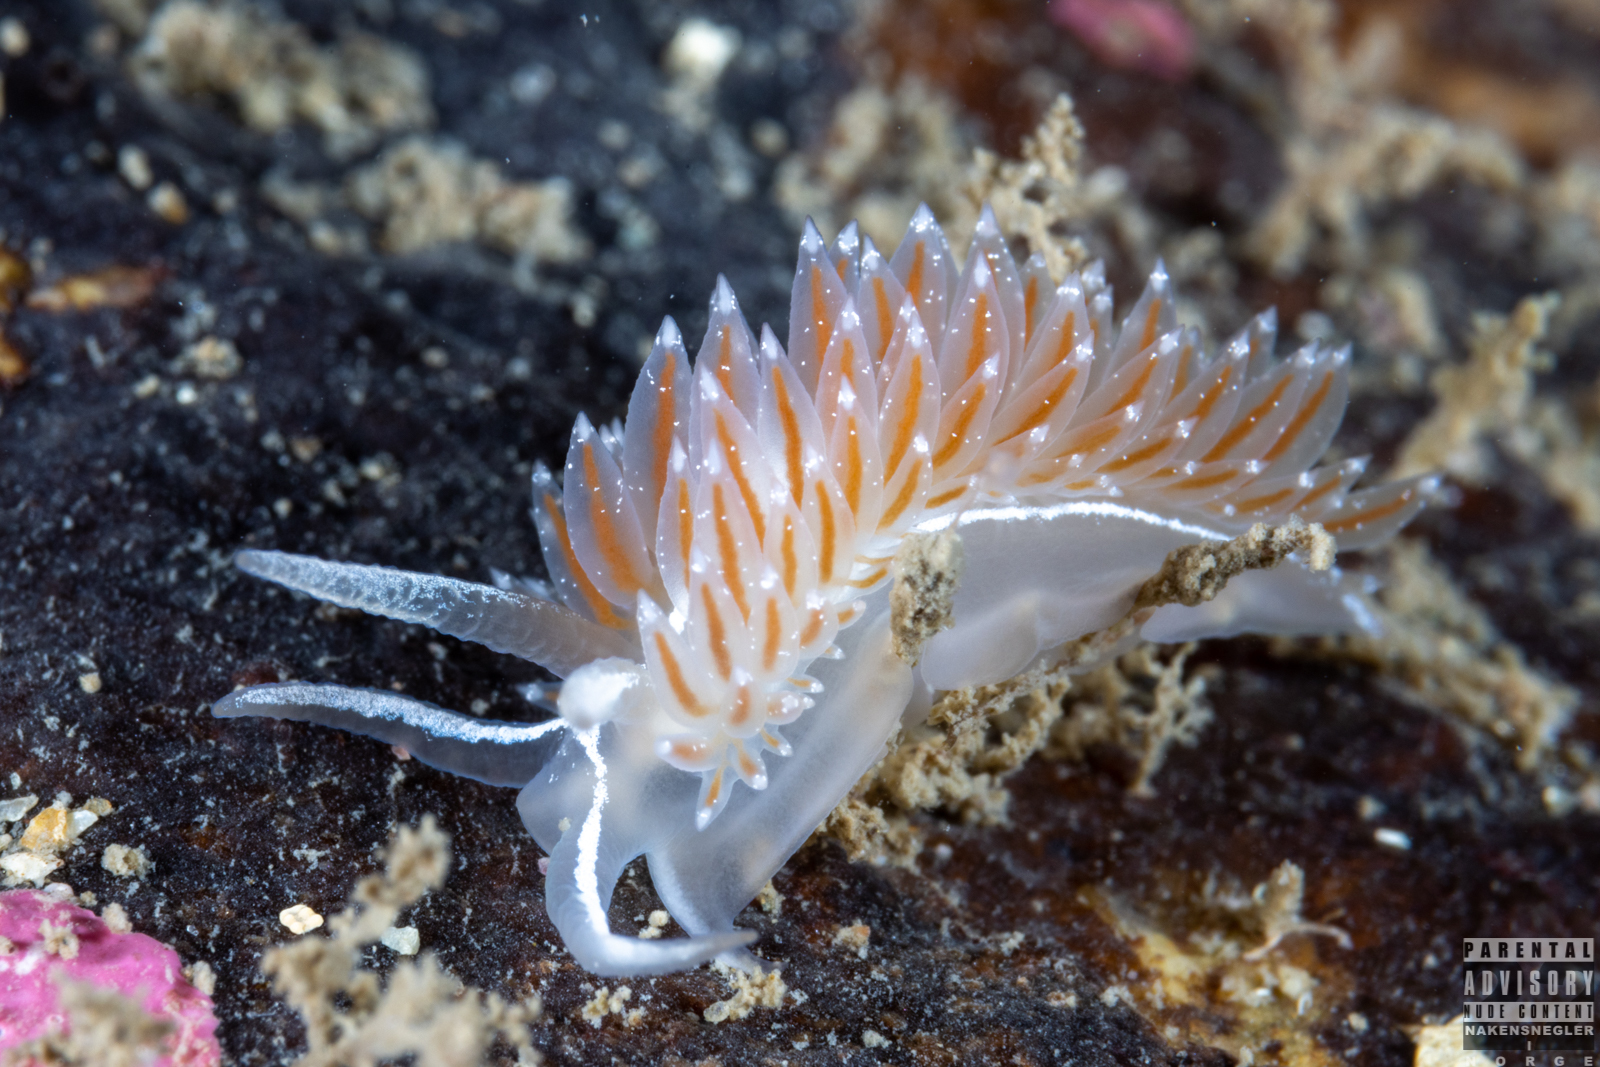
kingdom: Animalia
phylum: Mollusca
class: Gastropoda
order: Nudibranchia
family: Coryphellidae
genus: Coryphella
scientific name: Coryphella monicae
